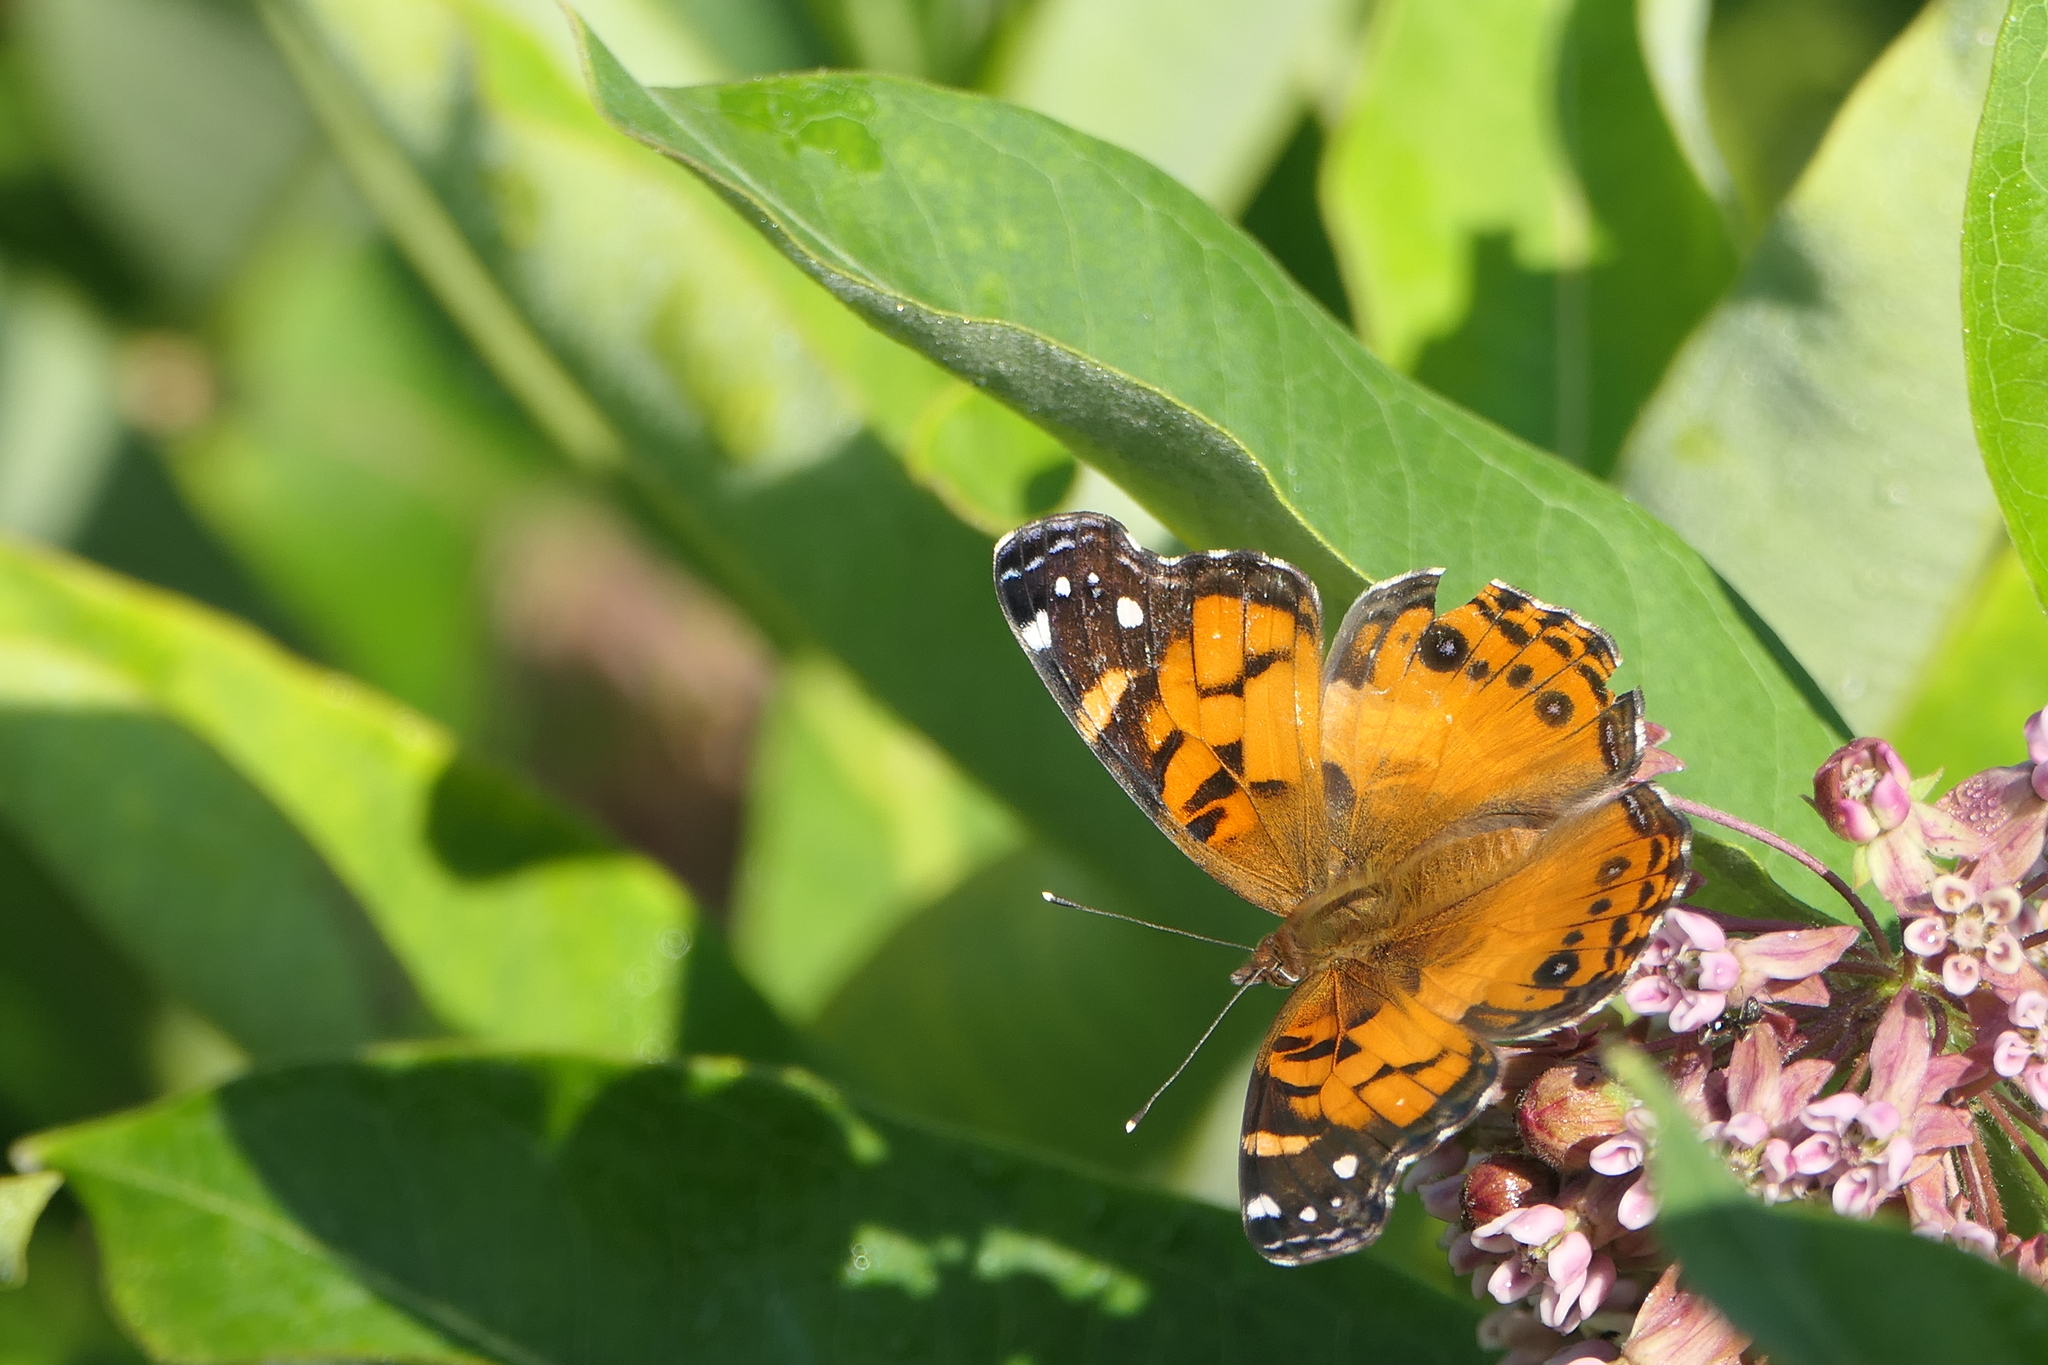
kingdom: Animalia
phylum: Arthropoda
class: Insecta
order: Lepidoptera
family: Nymphalidae
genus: Vanessa
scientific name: Vanessa virginiensis
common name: American lady
